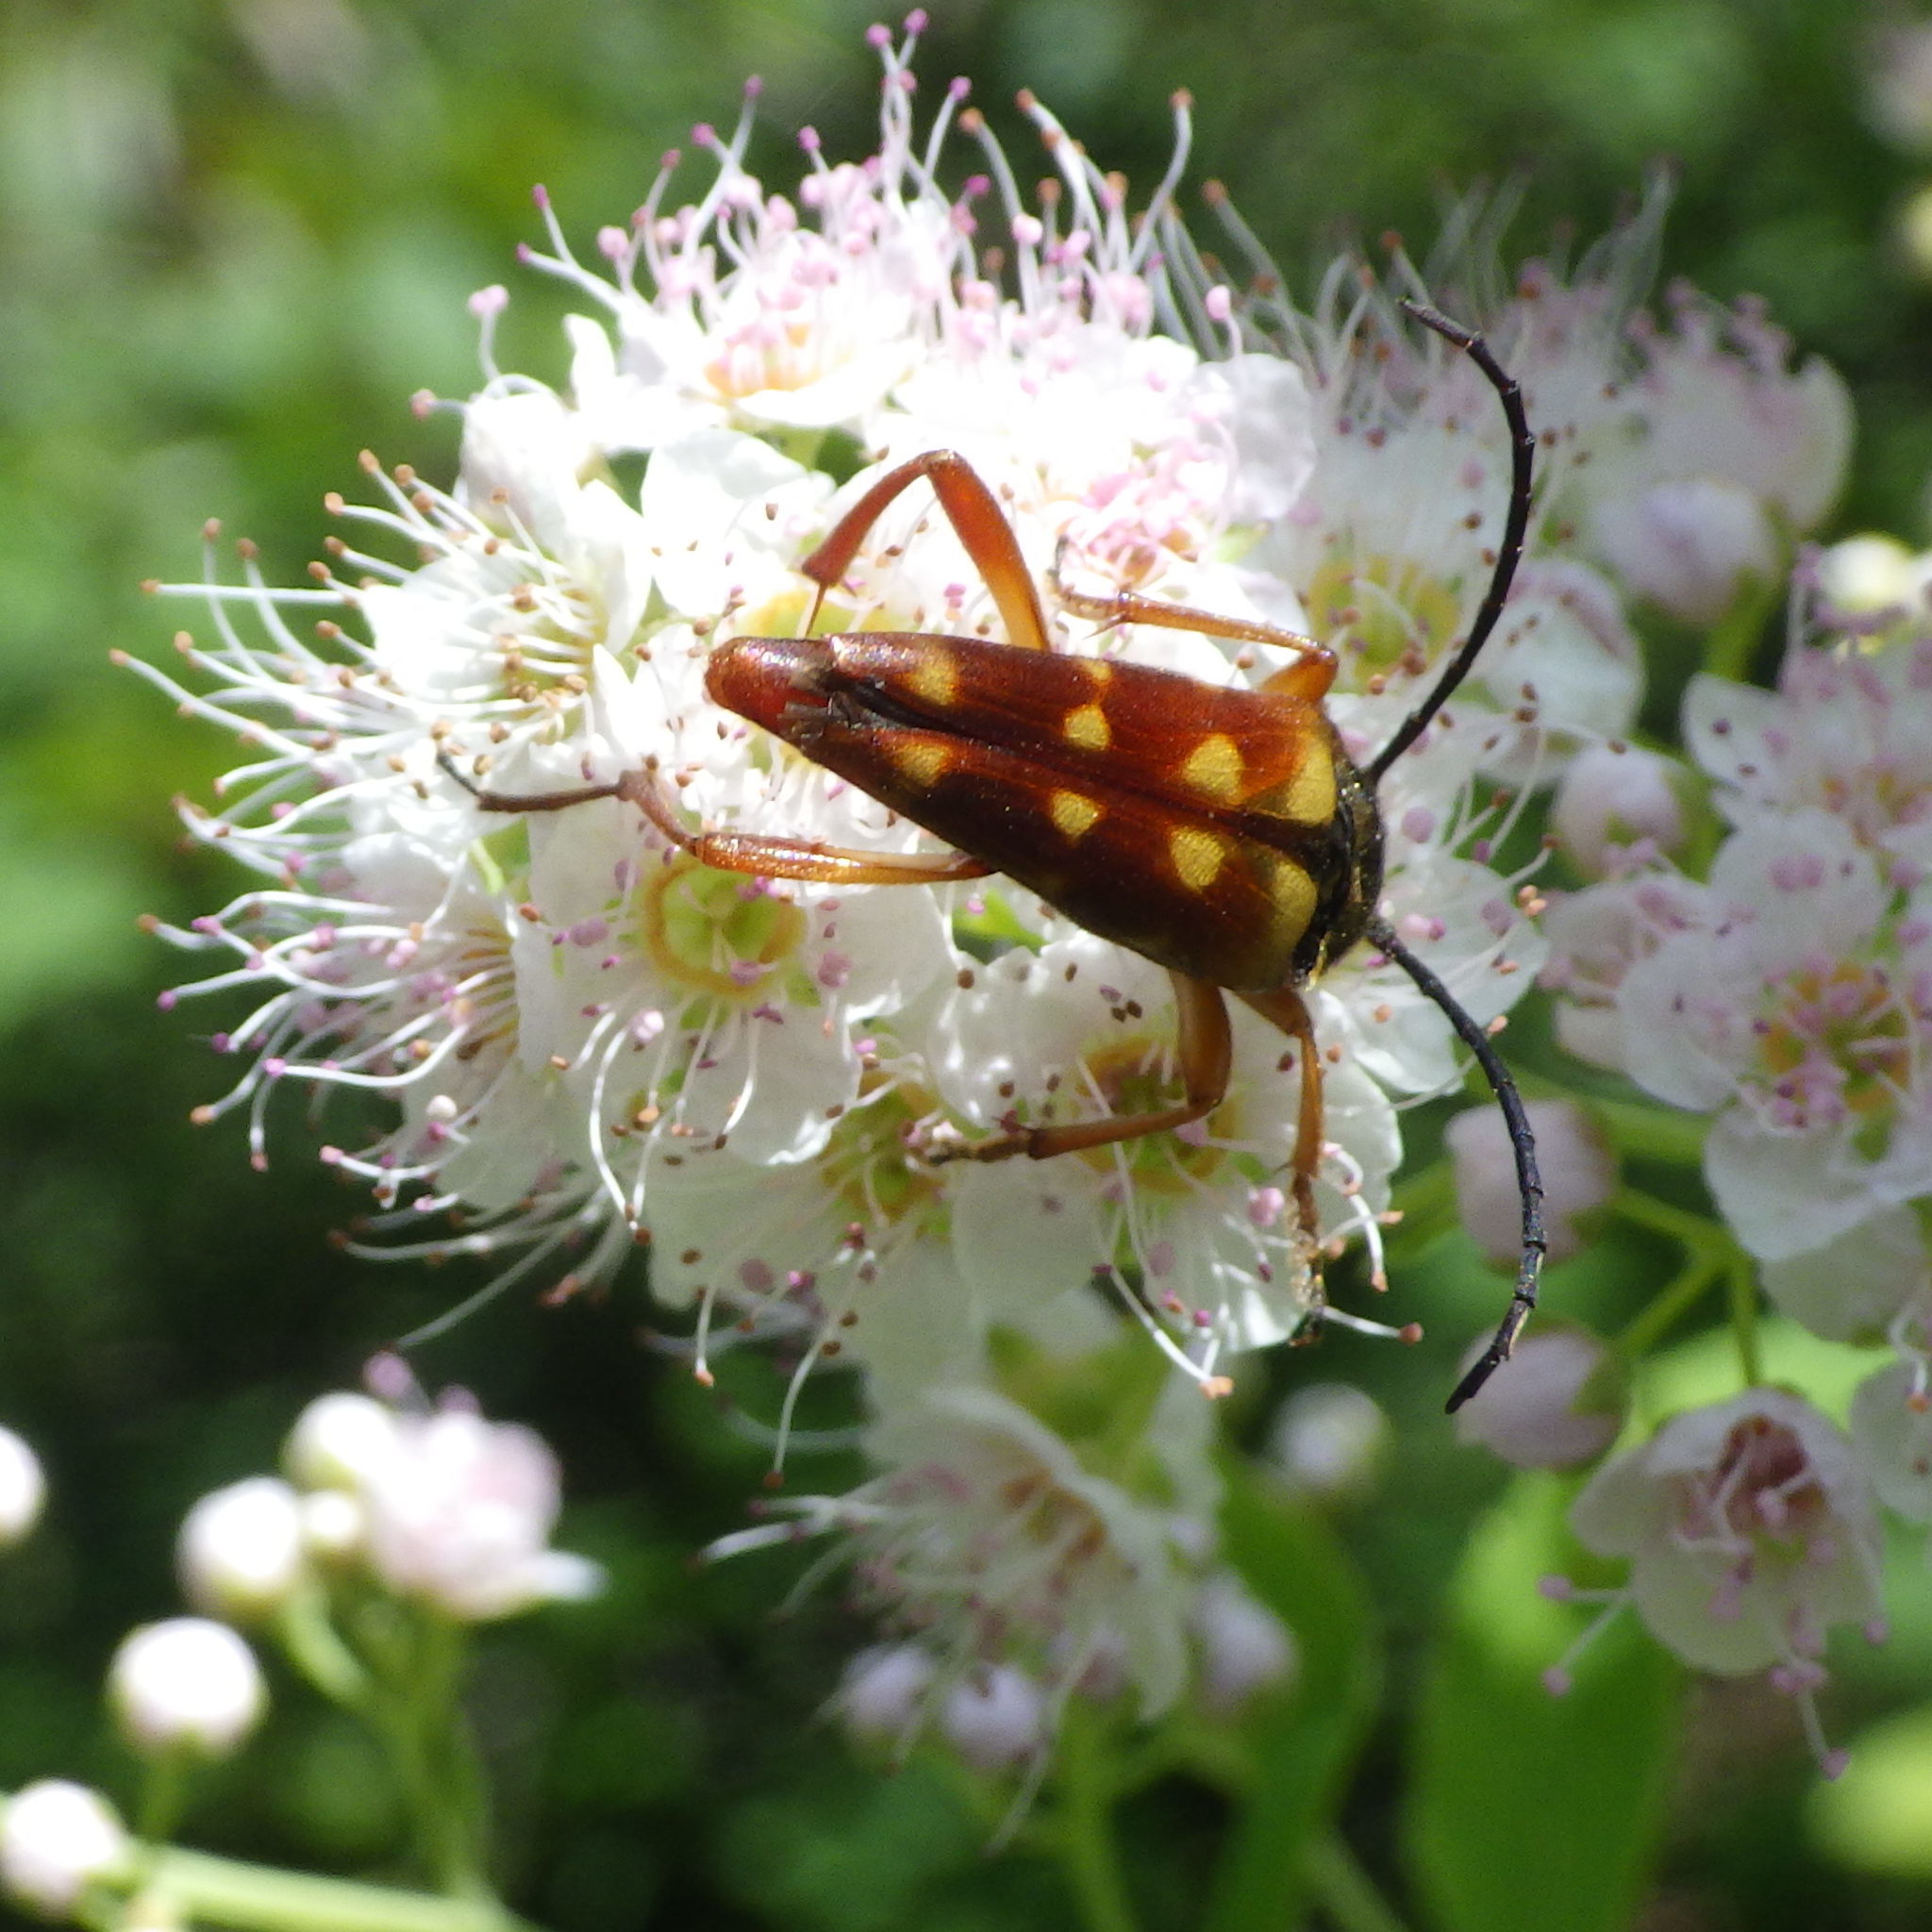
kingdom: Animalia
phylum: Arthropoda
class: Insecta
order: Coleoptera
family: Cerambycidae
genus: Typocerus
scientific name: Typocerus velutinus
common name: Banded longhorn beetle
